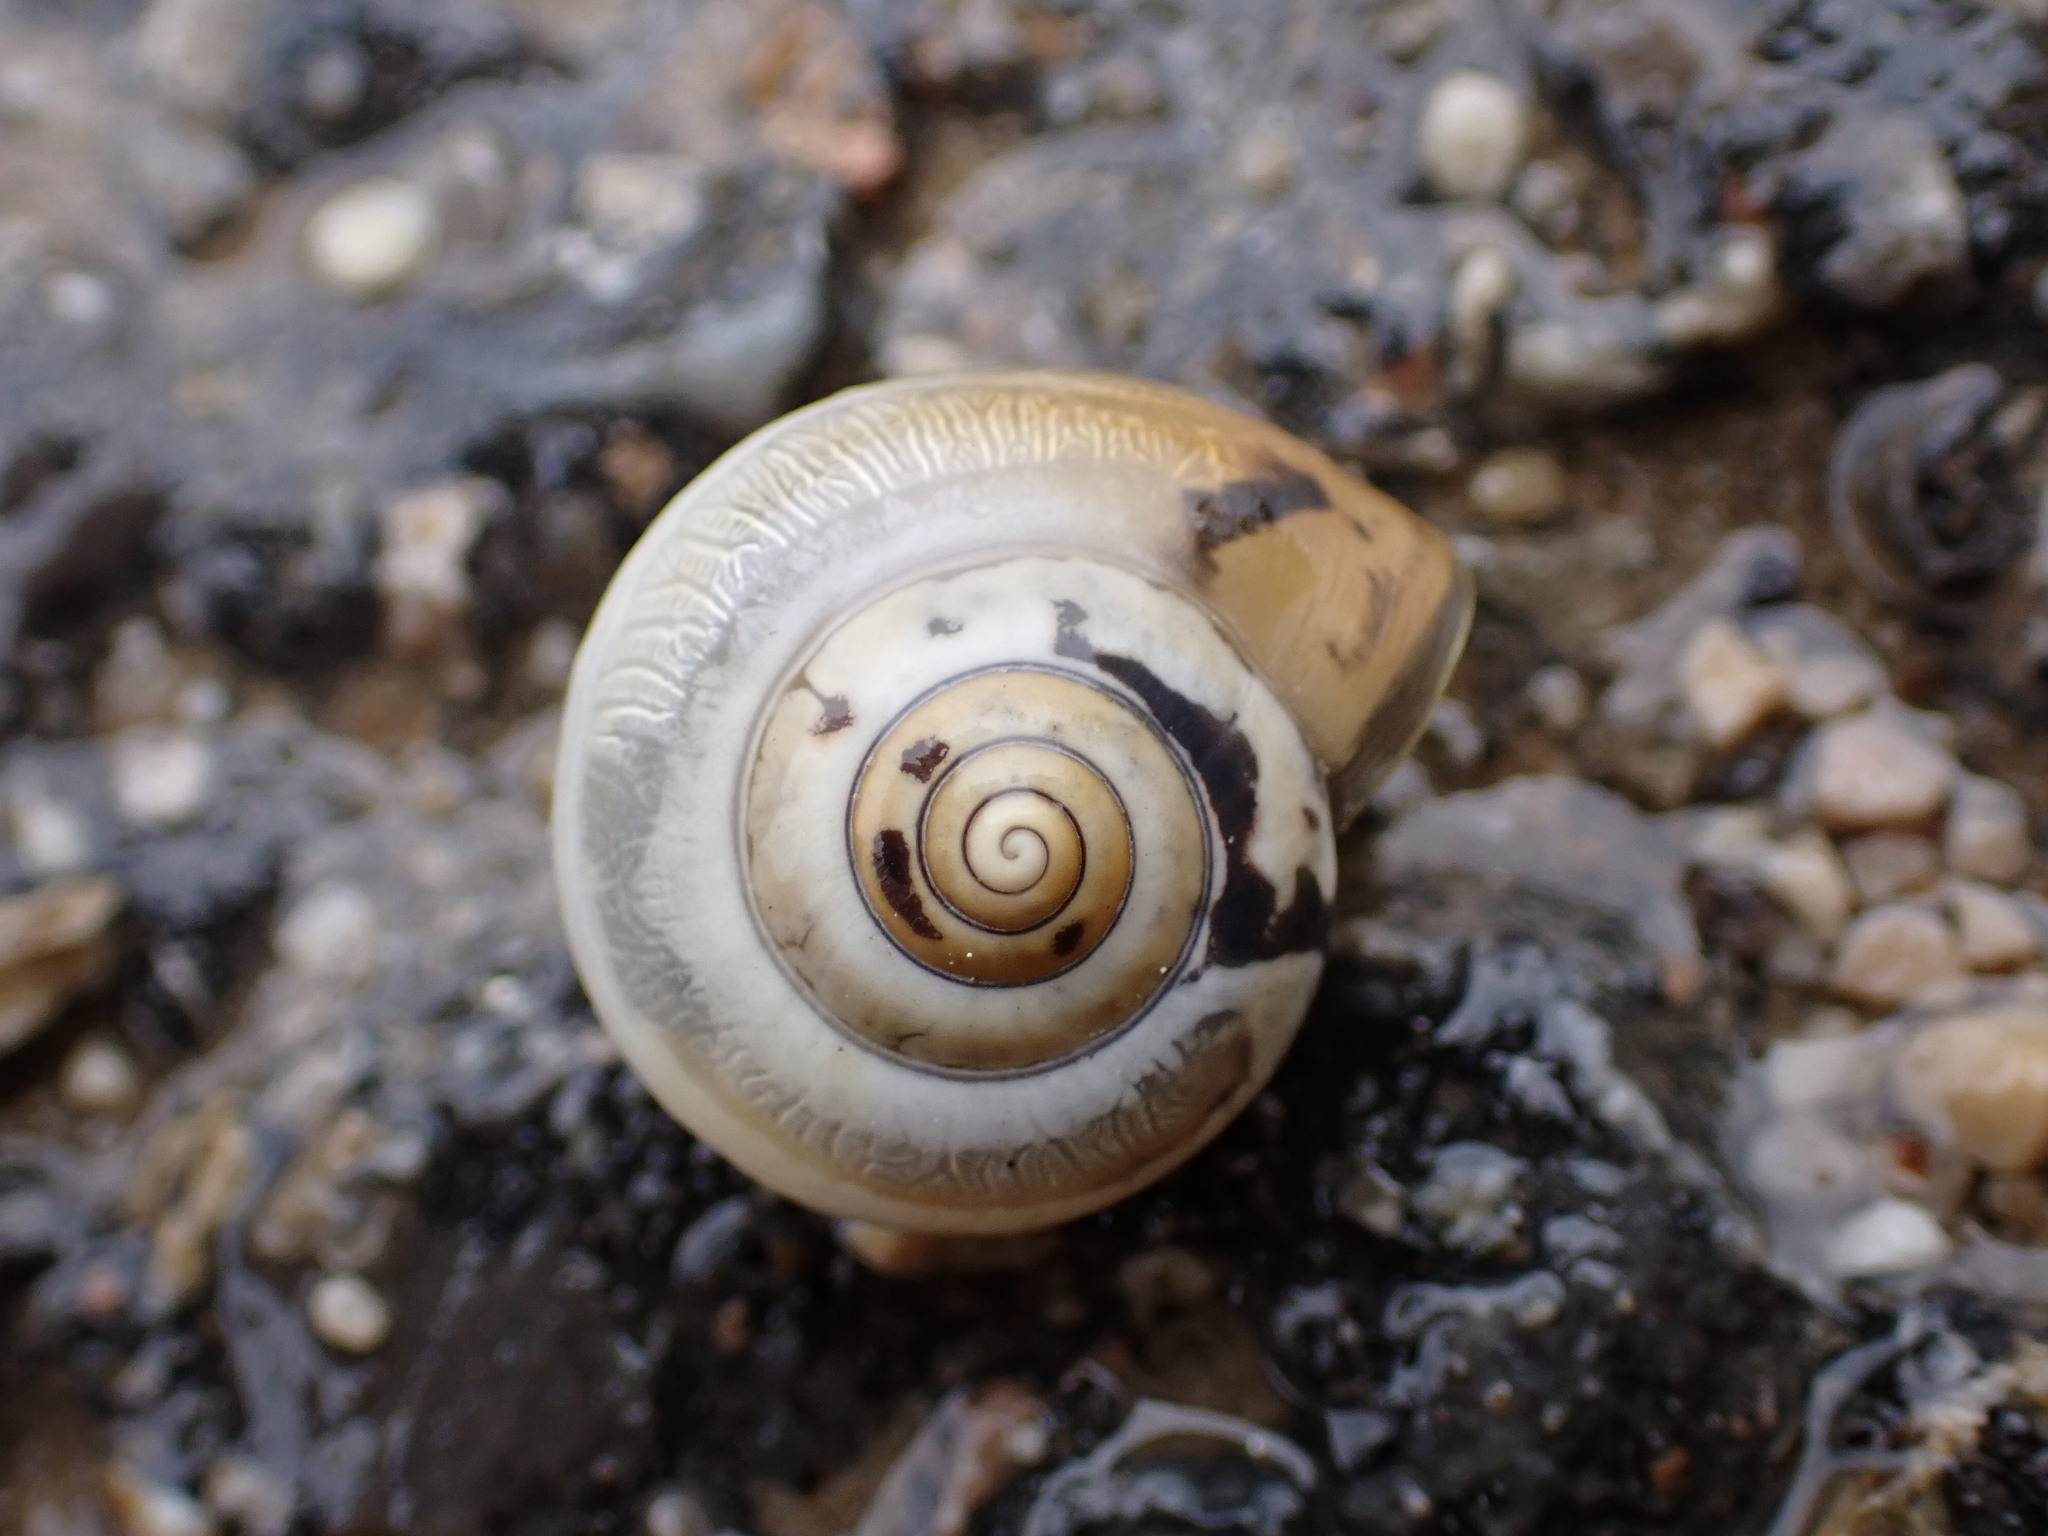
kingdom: Animalia
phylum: Mollusca
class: Gastropoda
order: Stylommatophora
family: Hygromiidae
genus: Monacha
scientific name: Monacha cartusiana
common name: Carthusian snail
